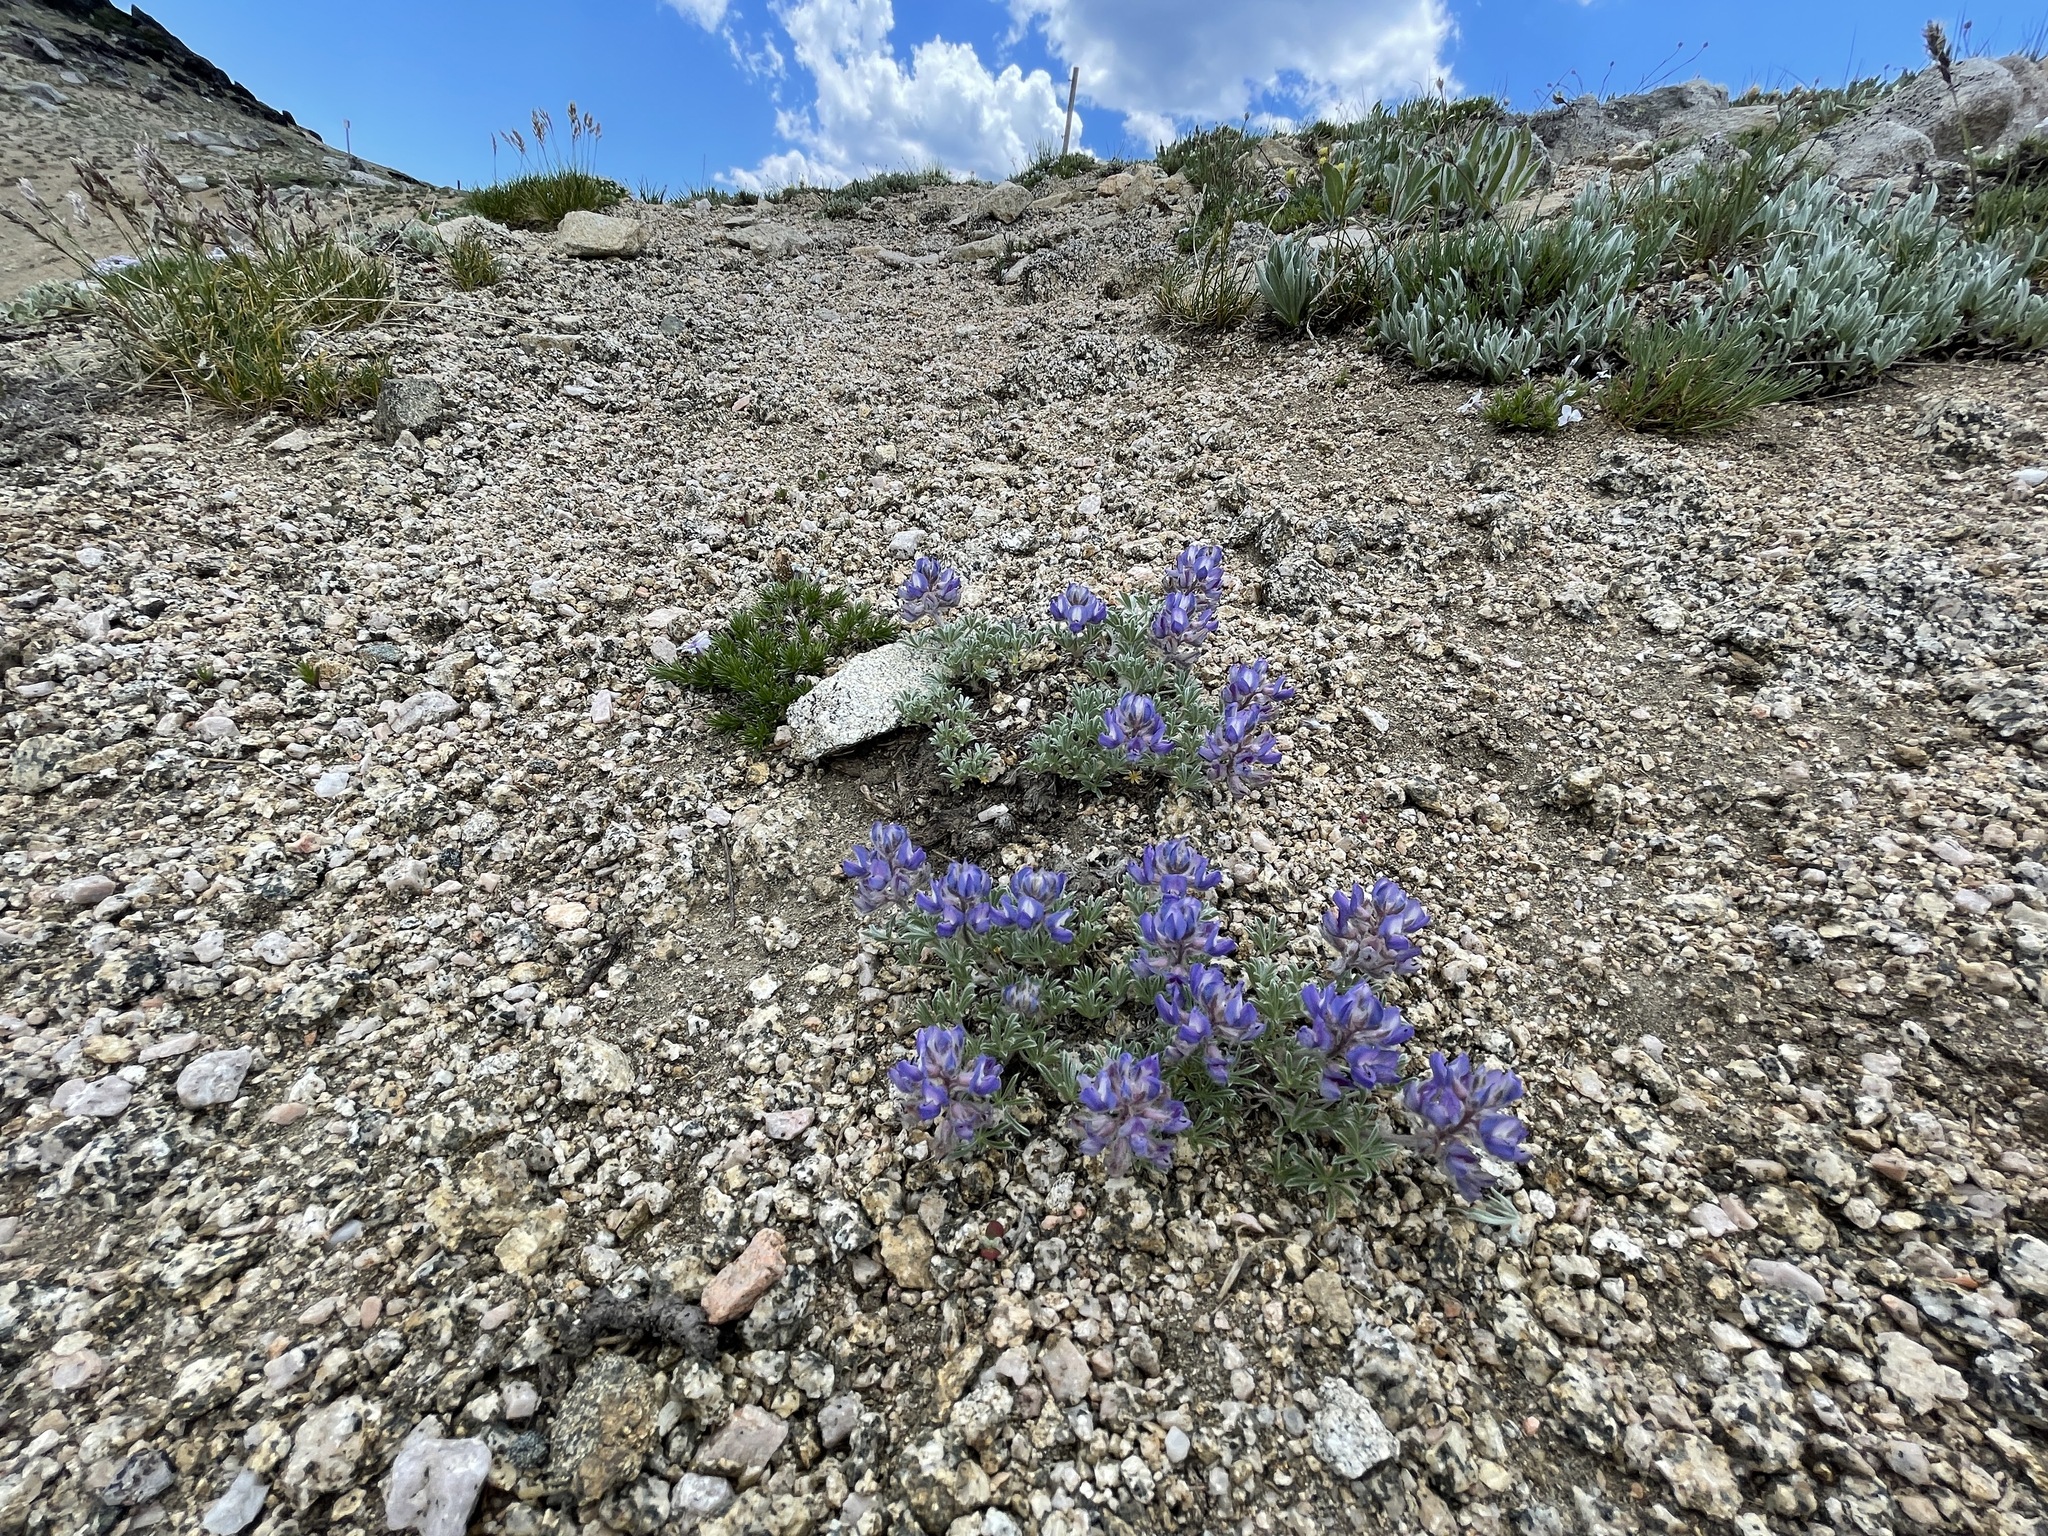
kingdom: Plantae
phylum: Tracheophyta
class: Magnoliopsida
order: Fabales
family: Fabaceae
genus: Lupinus
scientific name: Lupinus breweri
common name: Brewer's lupine
